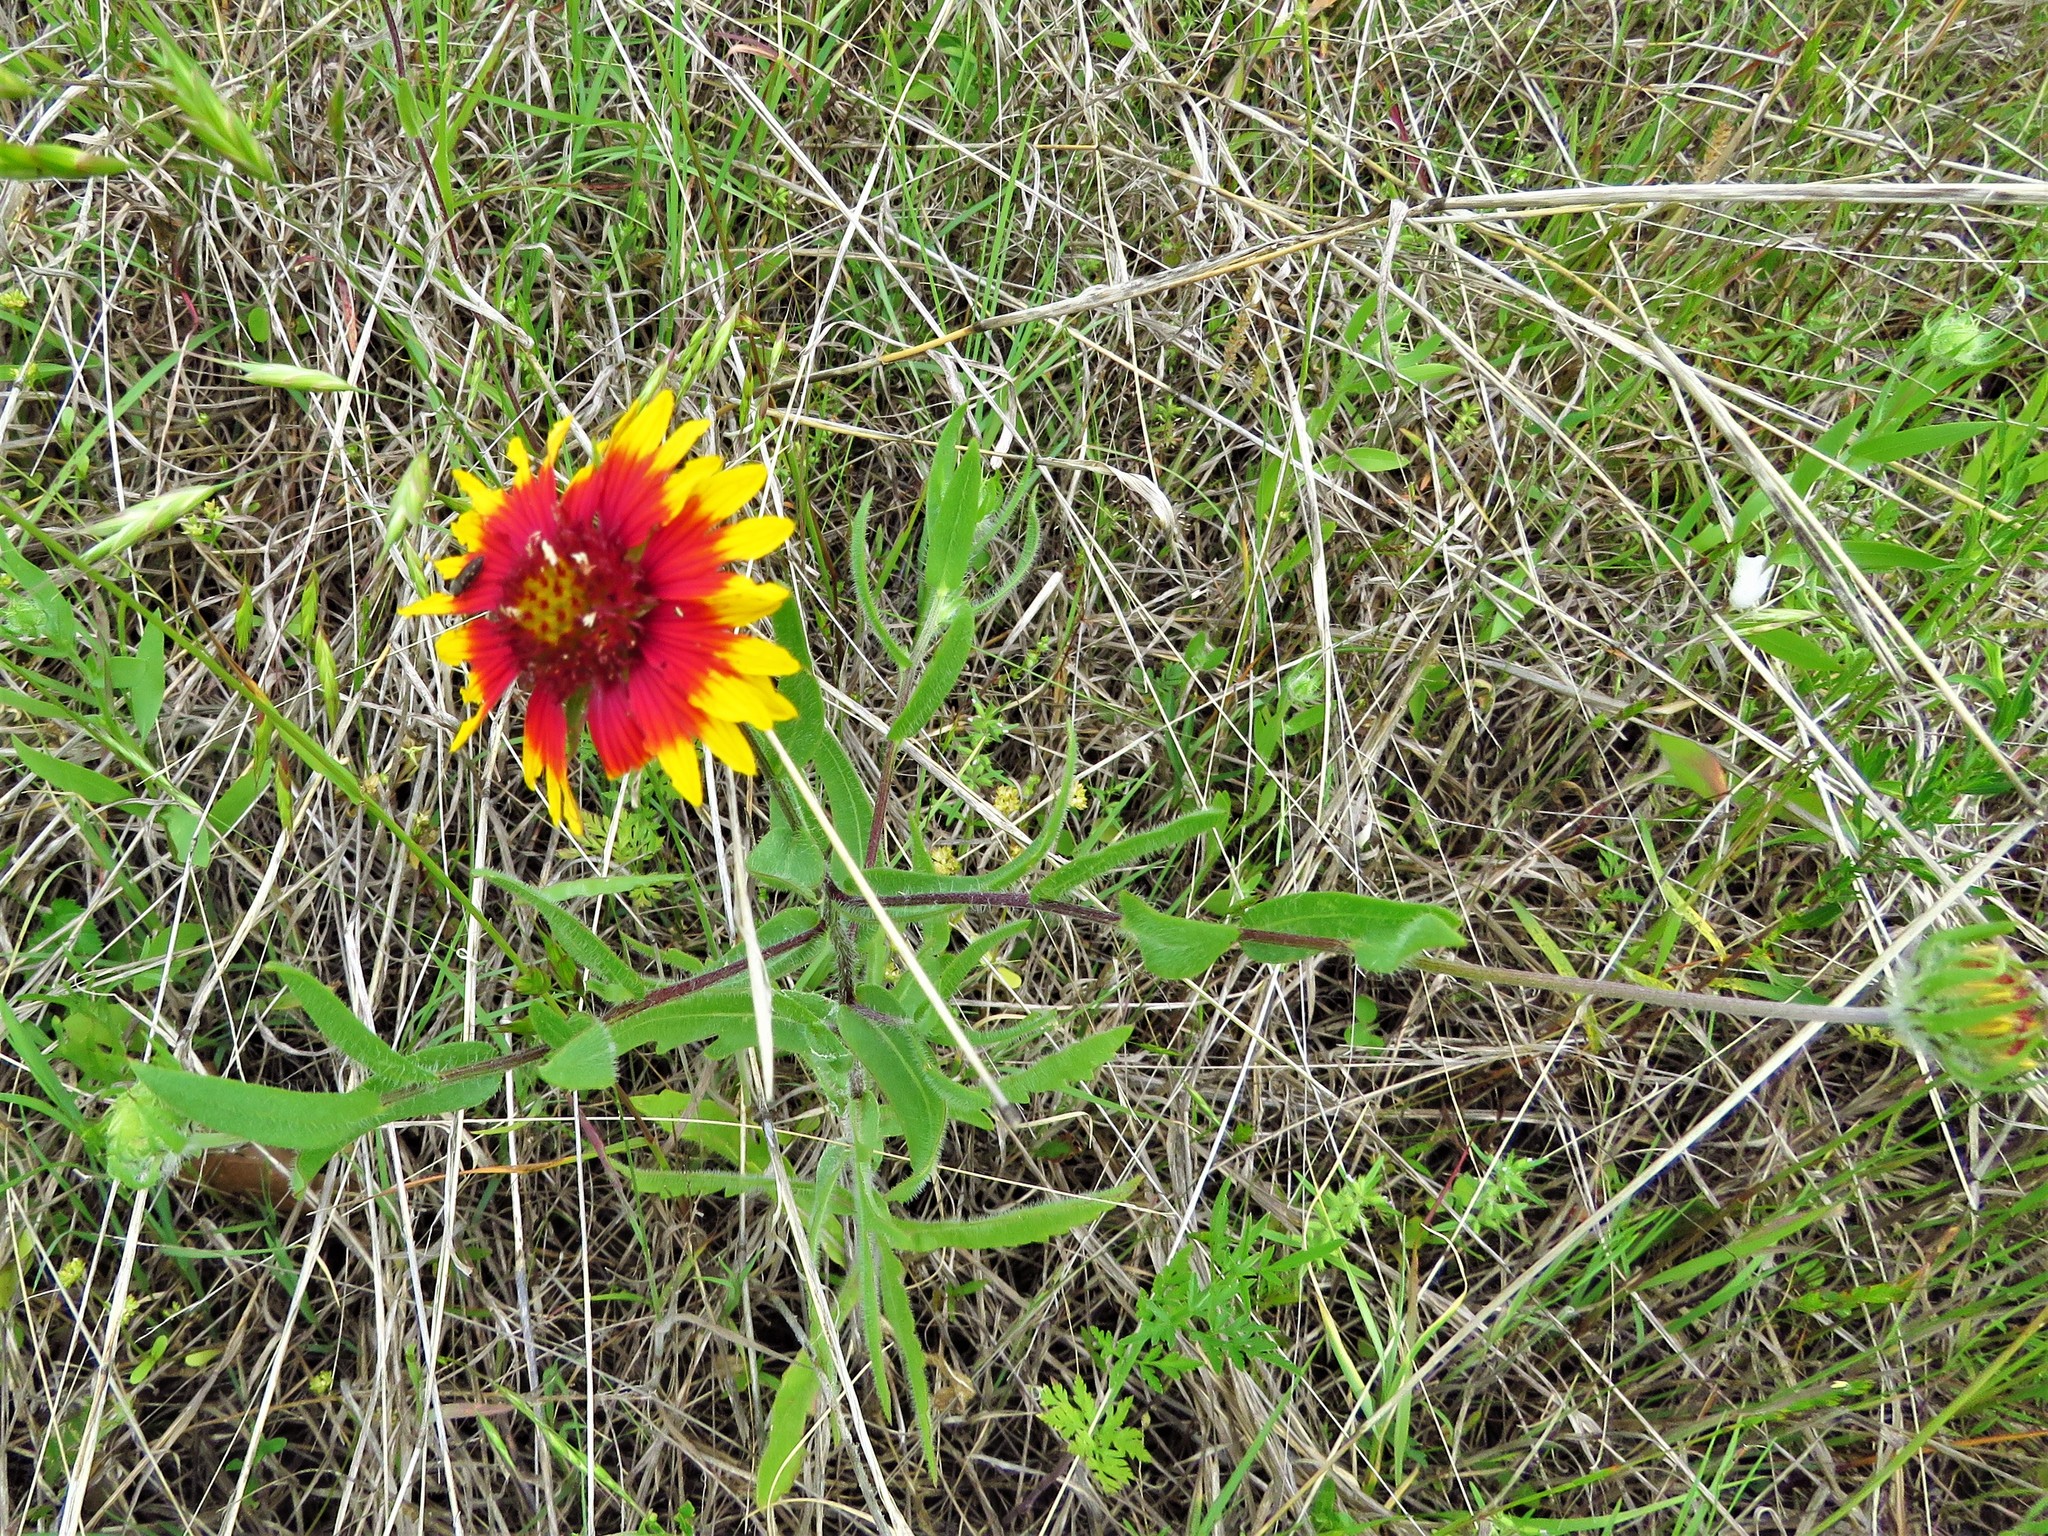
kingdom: Plantae
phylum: Tracheophyta
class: Magnoliopsida
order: Asterales
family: Asteraceae
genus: Gaillardia
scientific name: Gaillardia pulchella
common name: Firewheel
